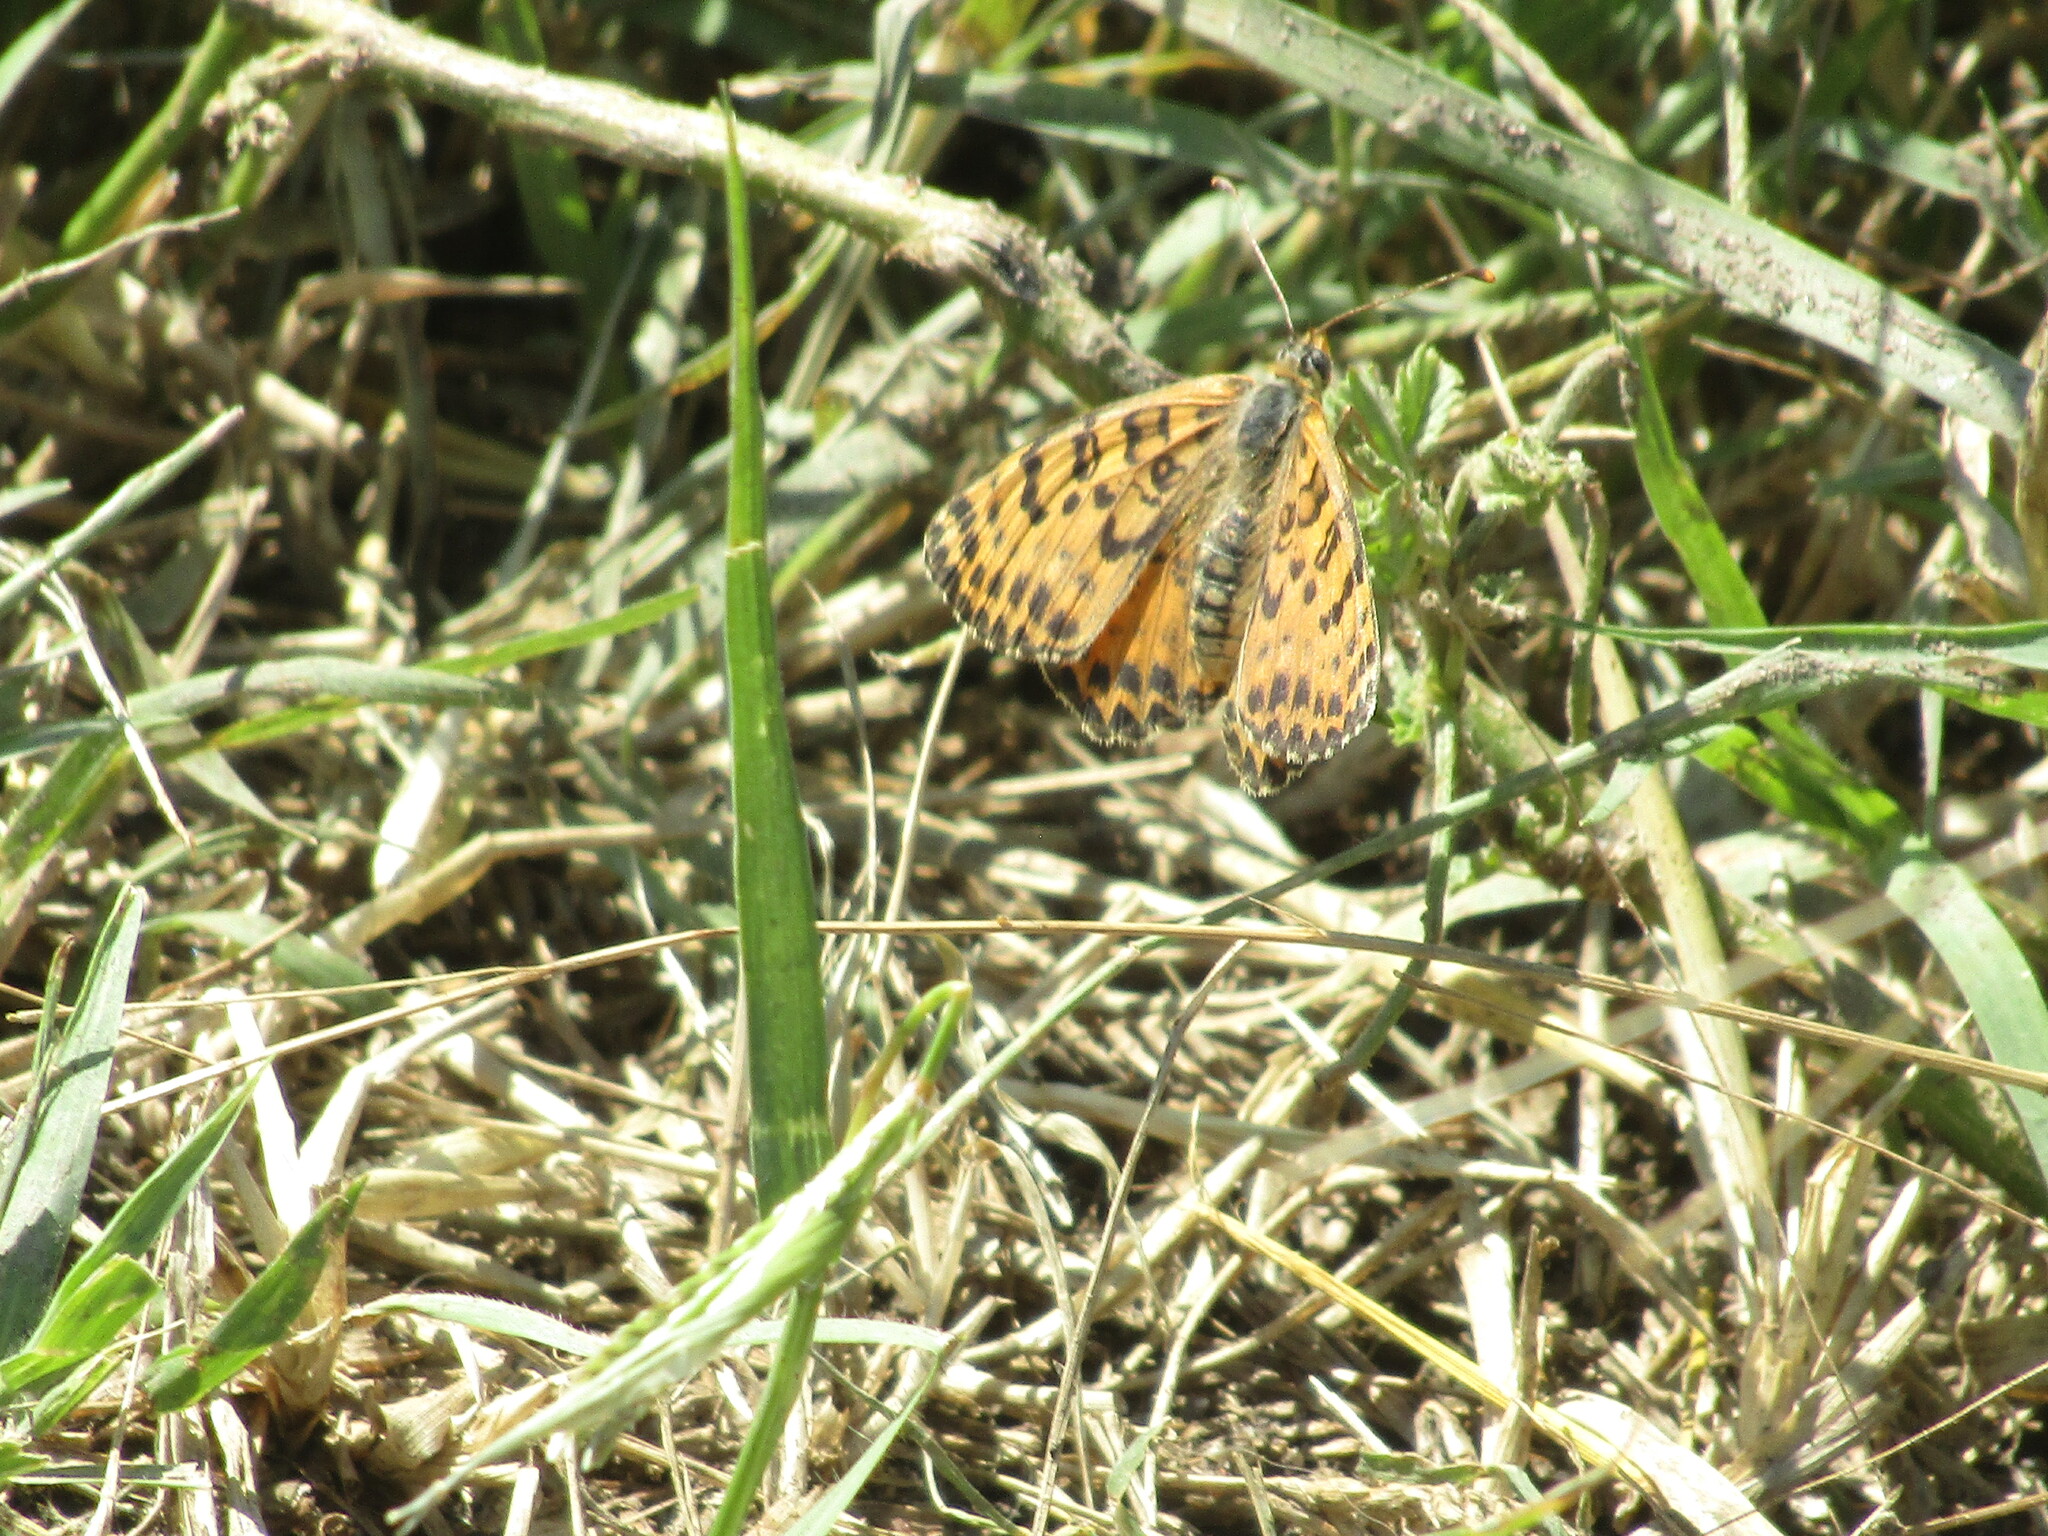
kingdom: Animalia
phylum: Arthropoda
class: Insecta
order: Lepidoptera
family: Nymphalidae
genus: Melitaea
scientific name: Melitaea didyma
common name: Spotted fritillary
